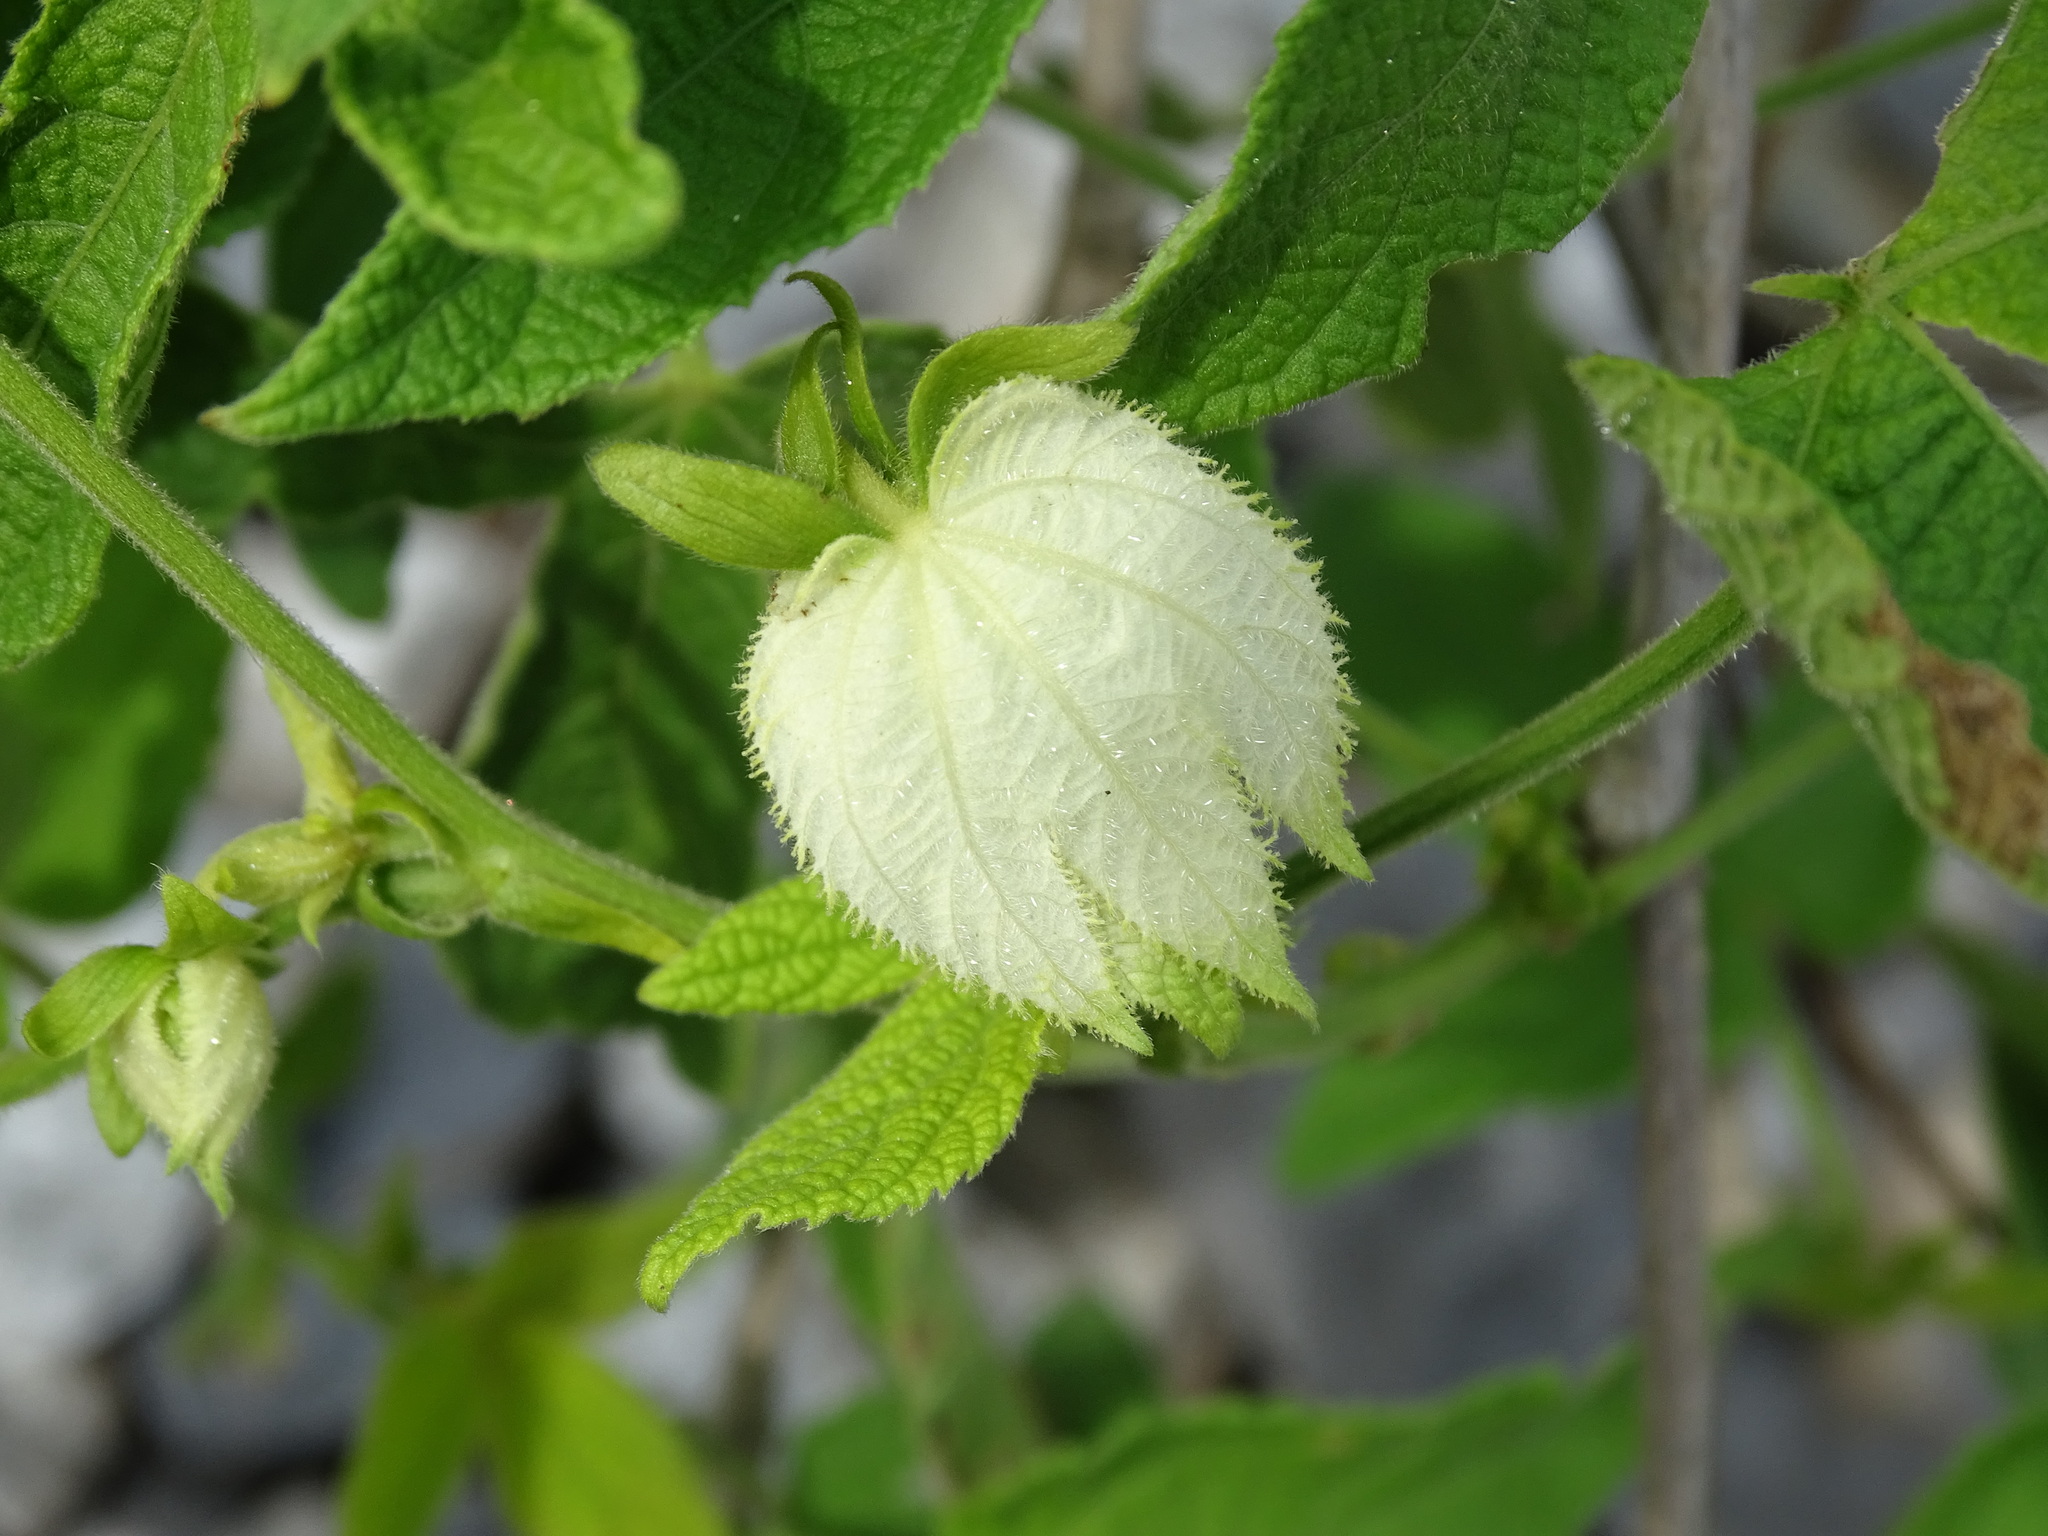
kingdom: Plantae
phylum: Tracheophyta
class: Magnoliopsida
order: Malpighiales
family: Euphorbiaceae
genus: Dalechampia
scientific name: Dalechampia scandens
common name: Spurgecreeper
